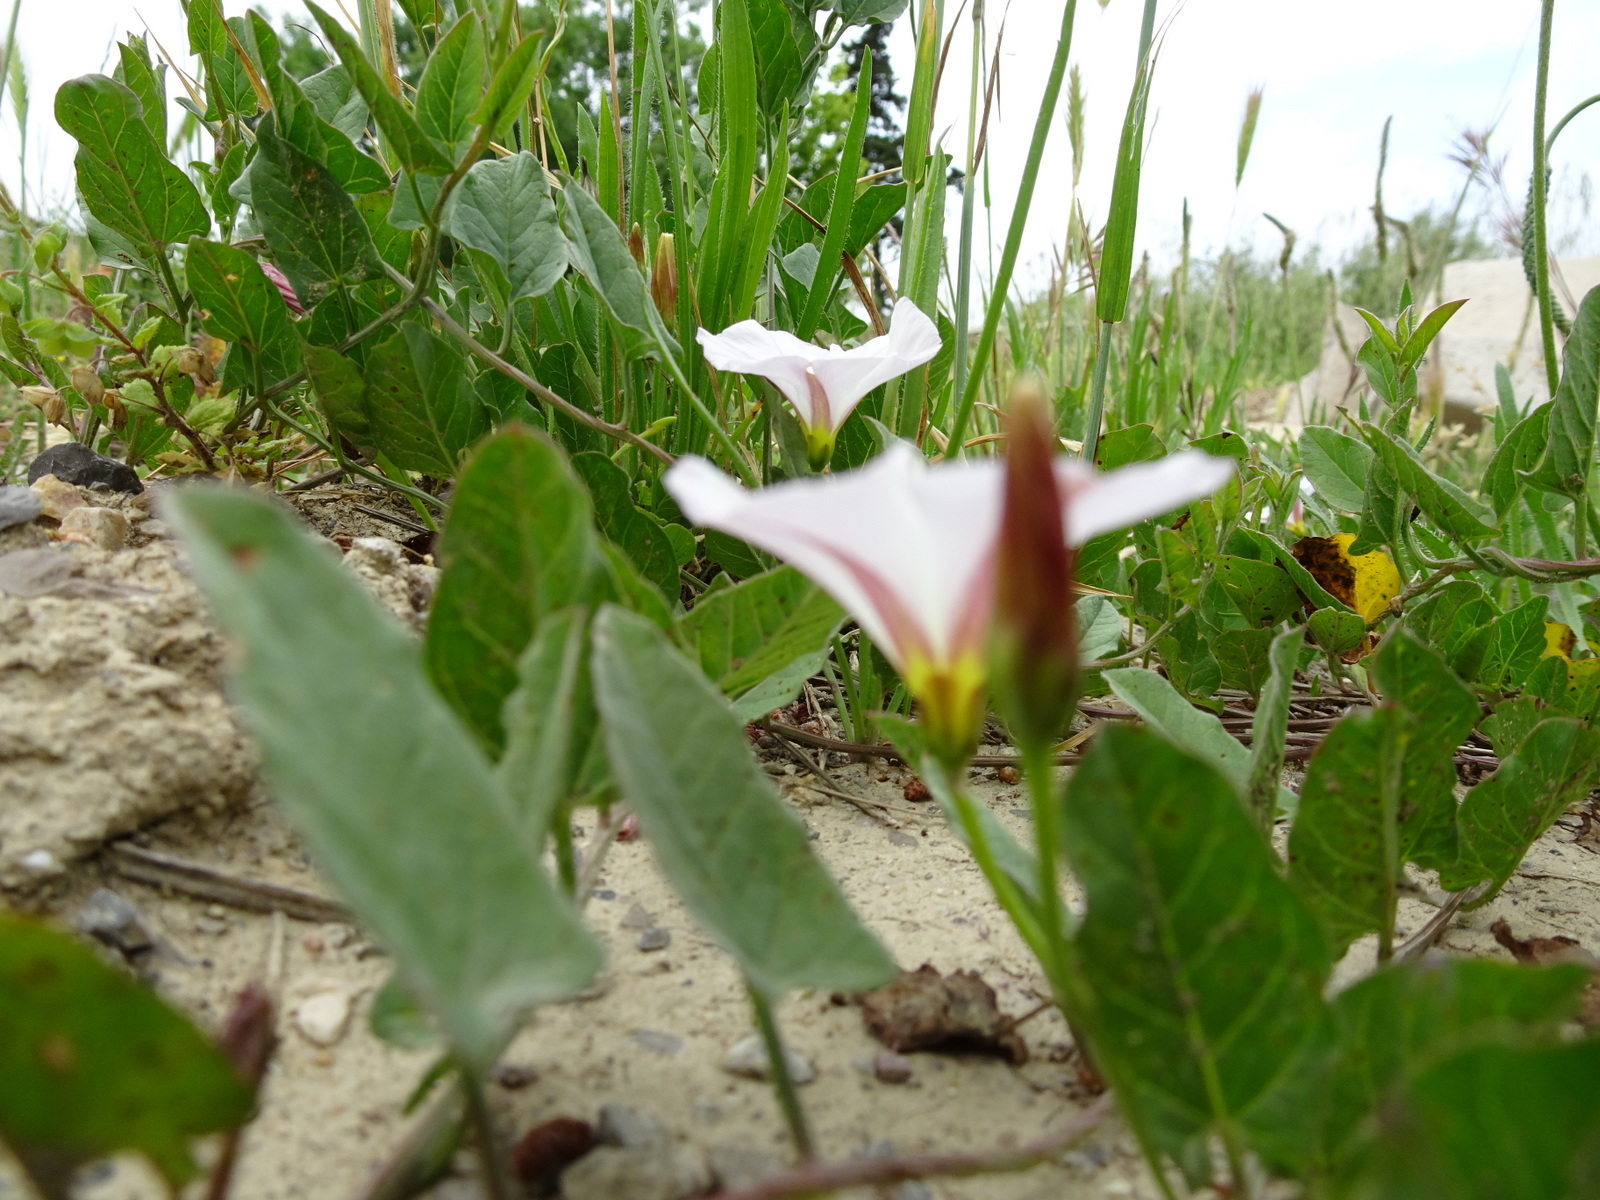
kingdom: Plantae
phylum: Tracheophyta
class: Magnoliopsida
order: Solanales
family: Convolvulaceae
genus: Convolvulus
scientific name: Convolvulus arvensis
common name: Field bindweed
